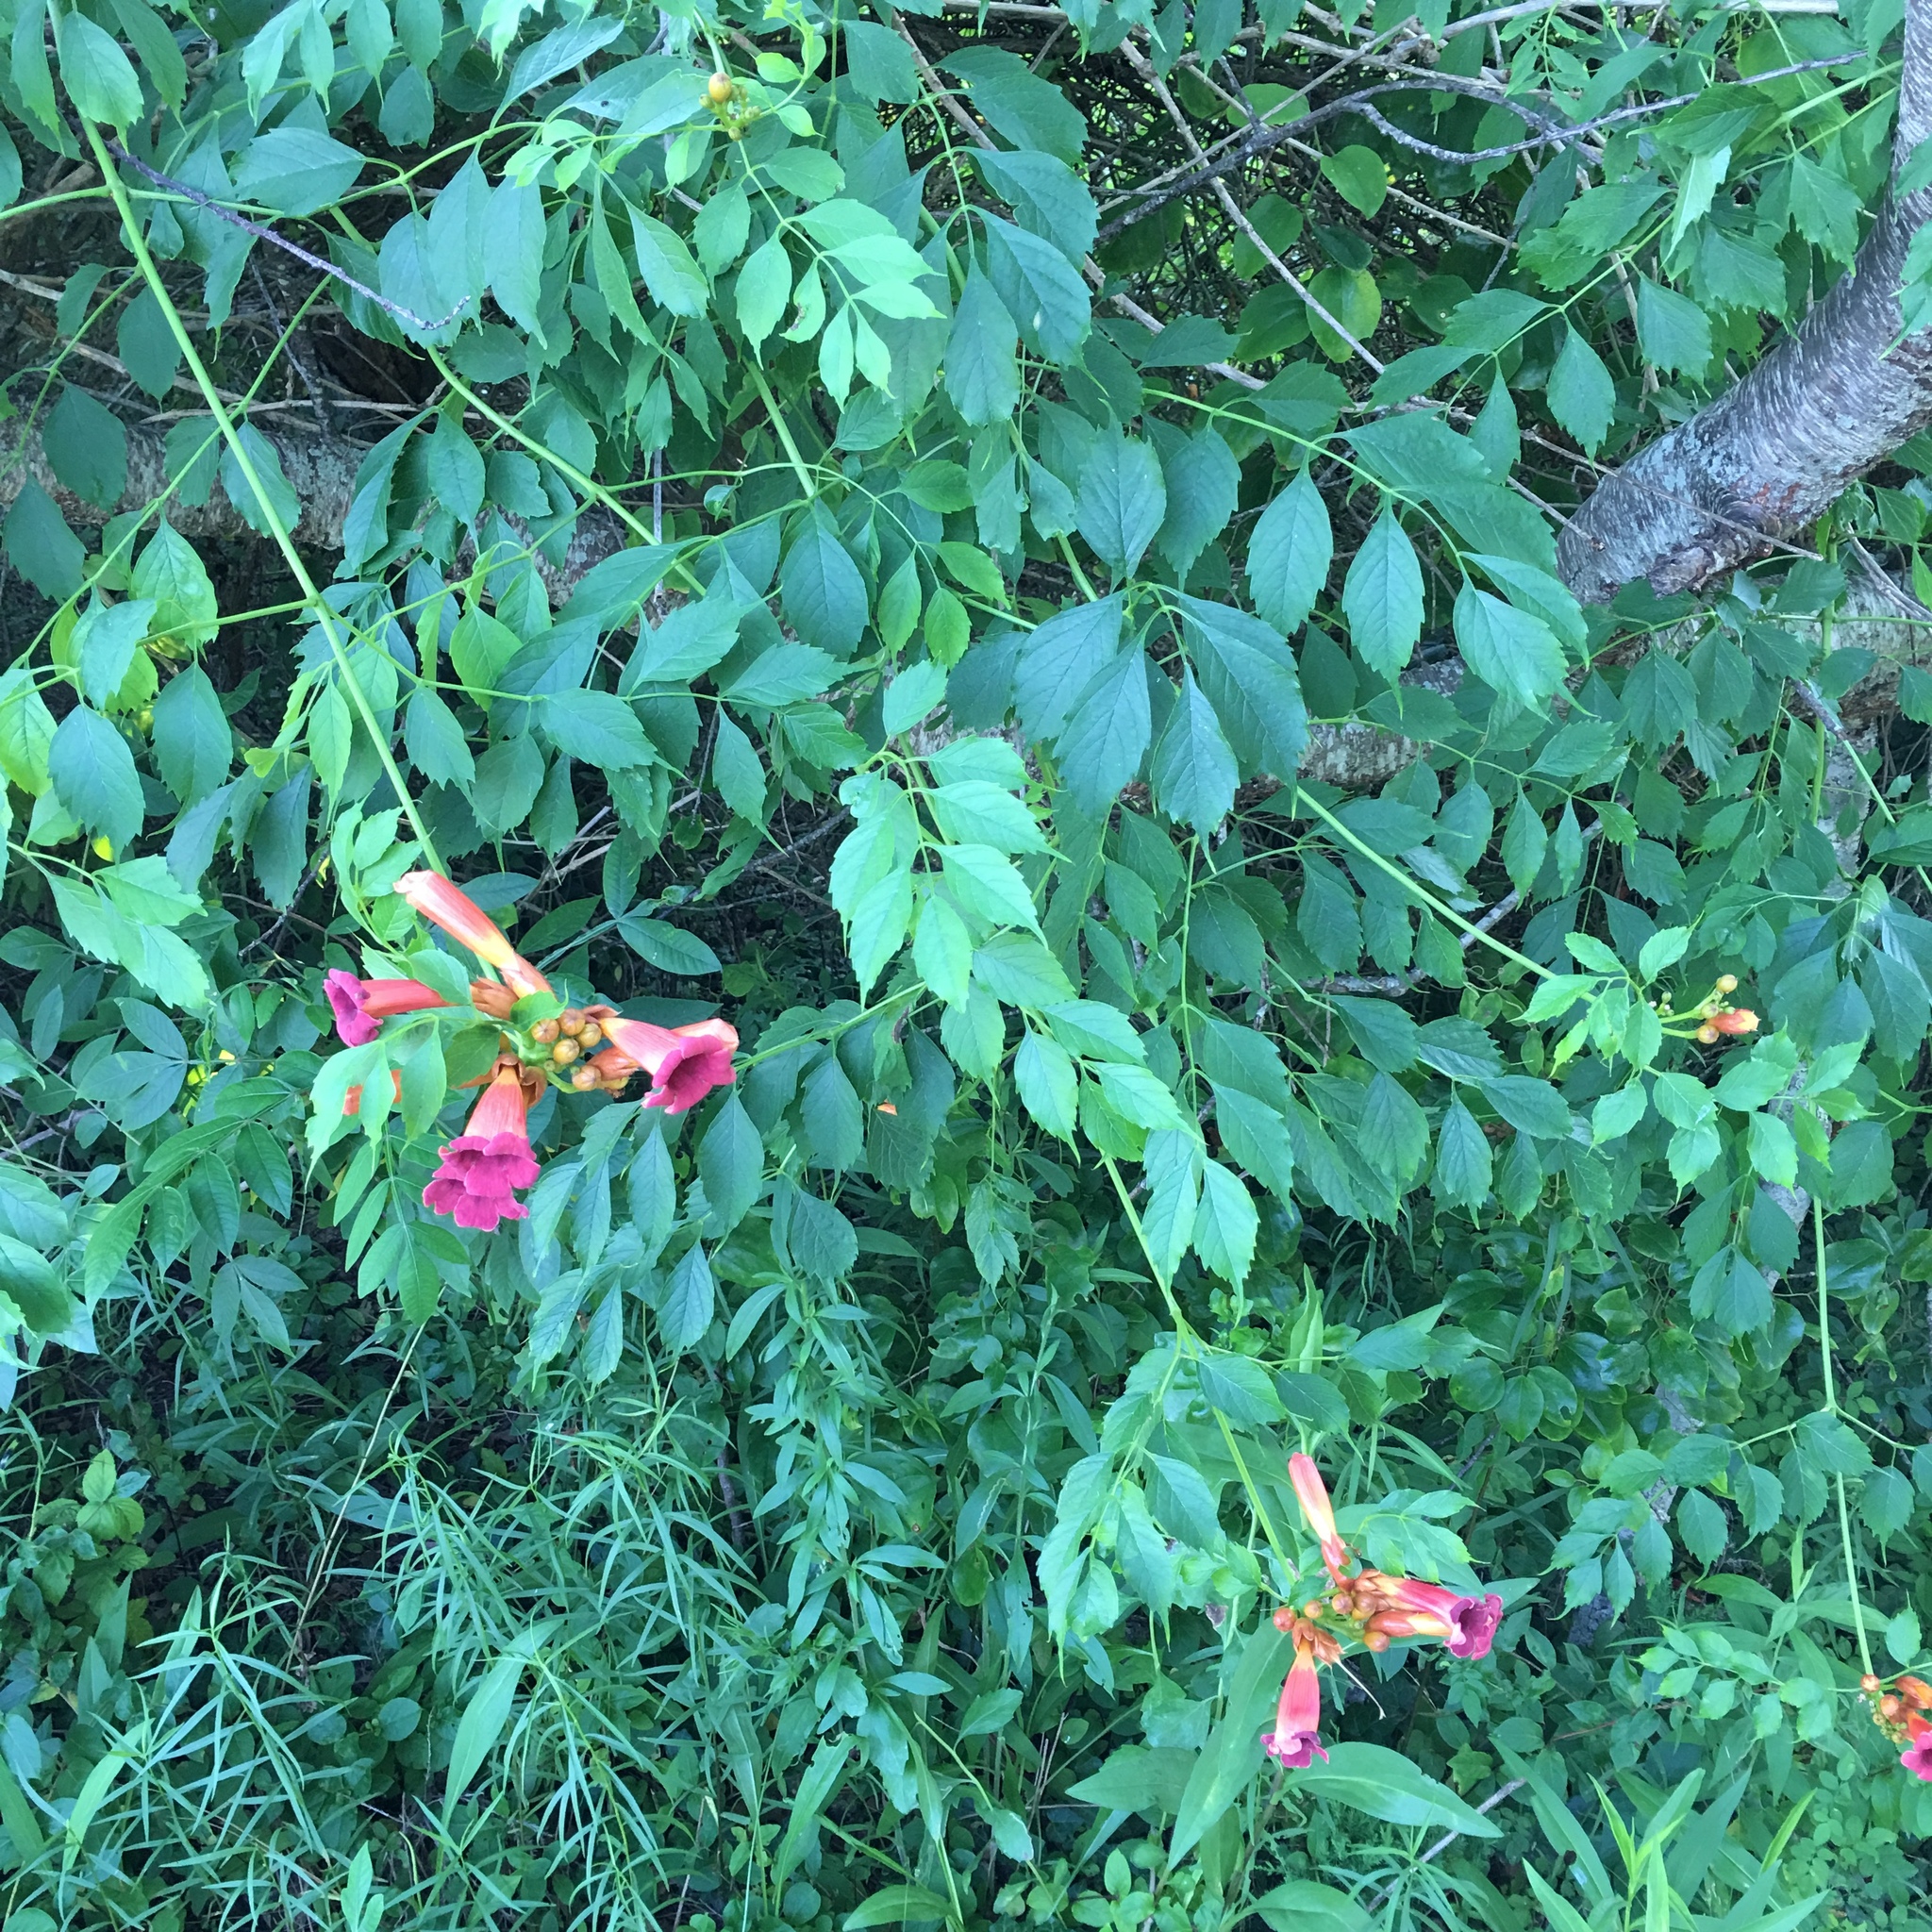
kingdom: Plantae
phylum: Tracheophyta
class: Magnoliopsida
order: Lamiales
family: Bignoniaceae
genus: Campsis
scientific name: Campsis radicans
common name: Trumpet-creeper
